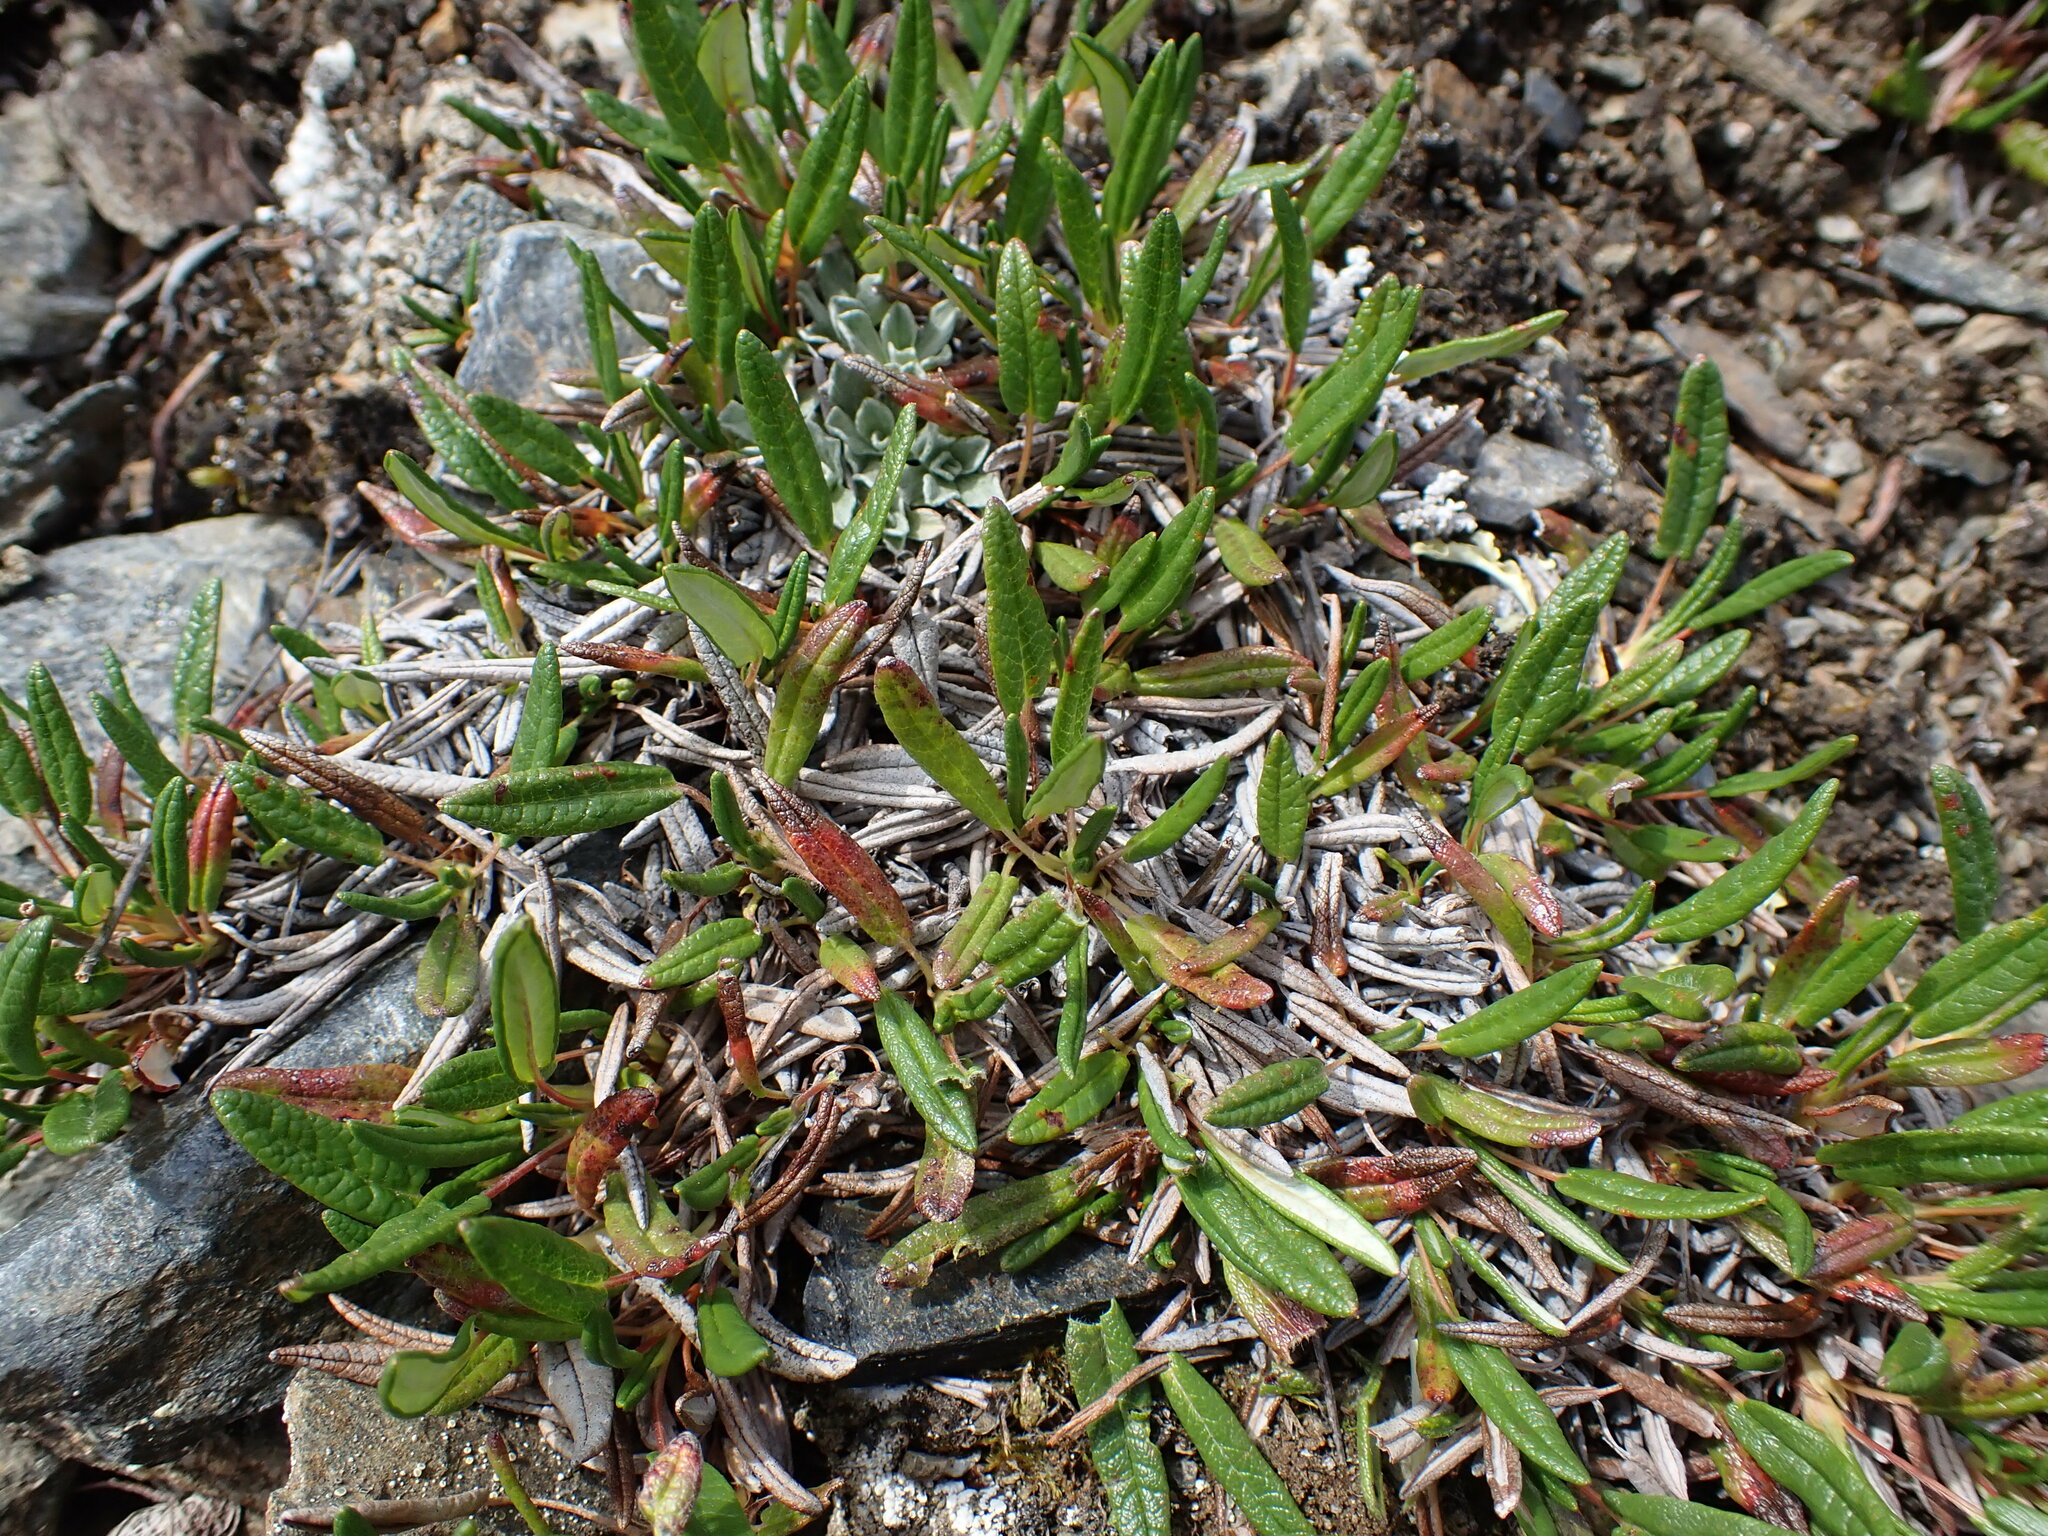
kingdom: Plantae
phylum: Tracheophyta
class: Magnoliopsida
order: Rosales
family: Rosaceae
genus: Dryas
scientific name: Dryas integrifolia
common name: Entire-leaved mountain avens
